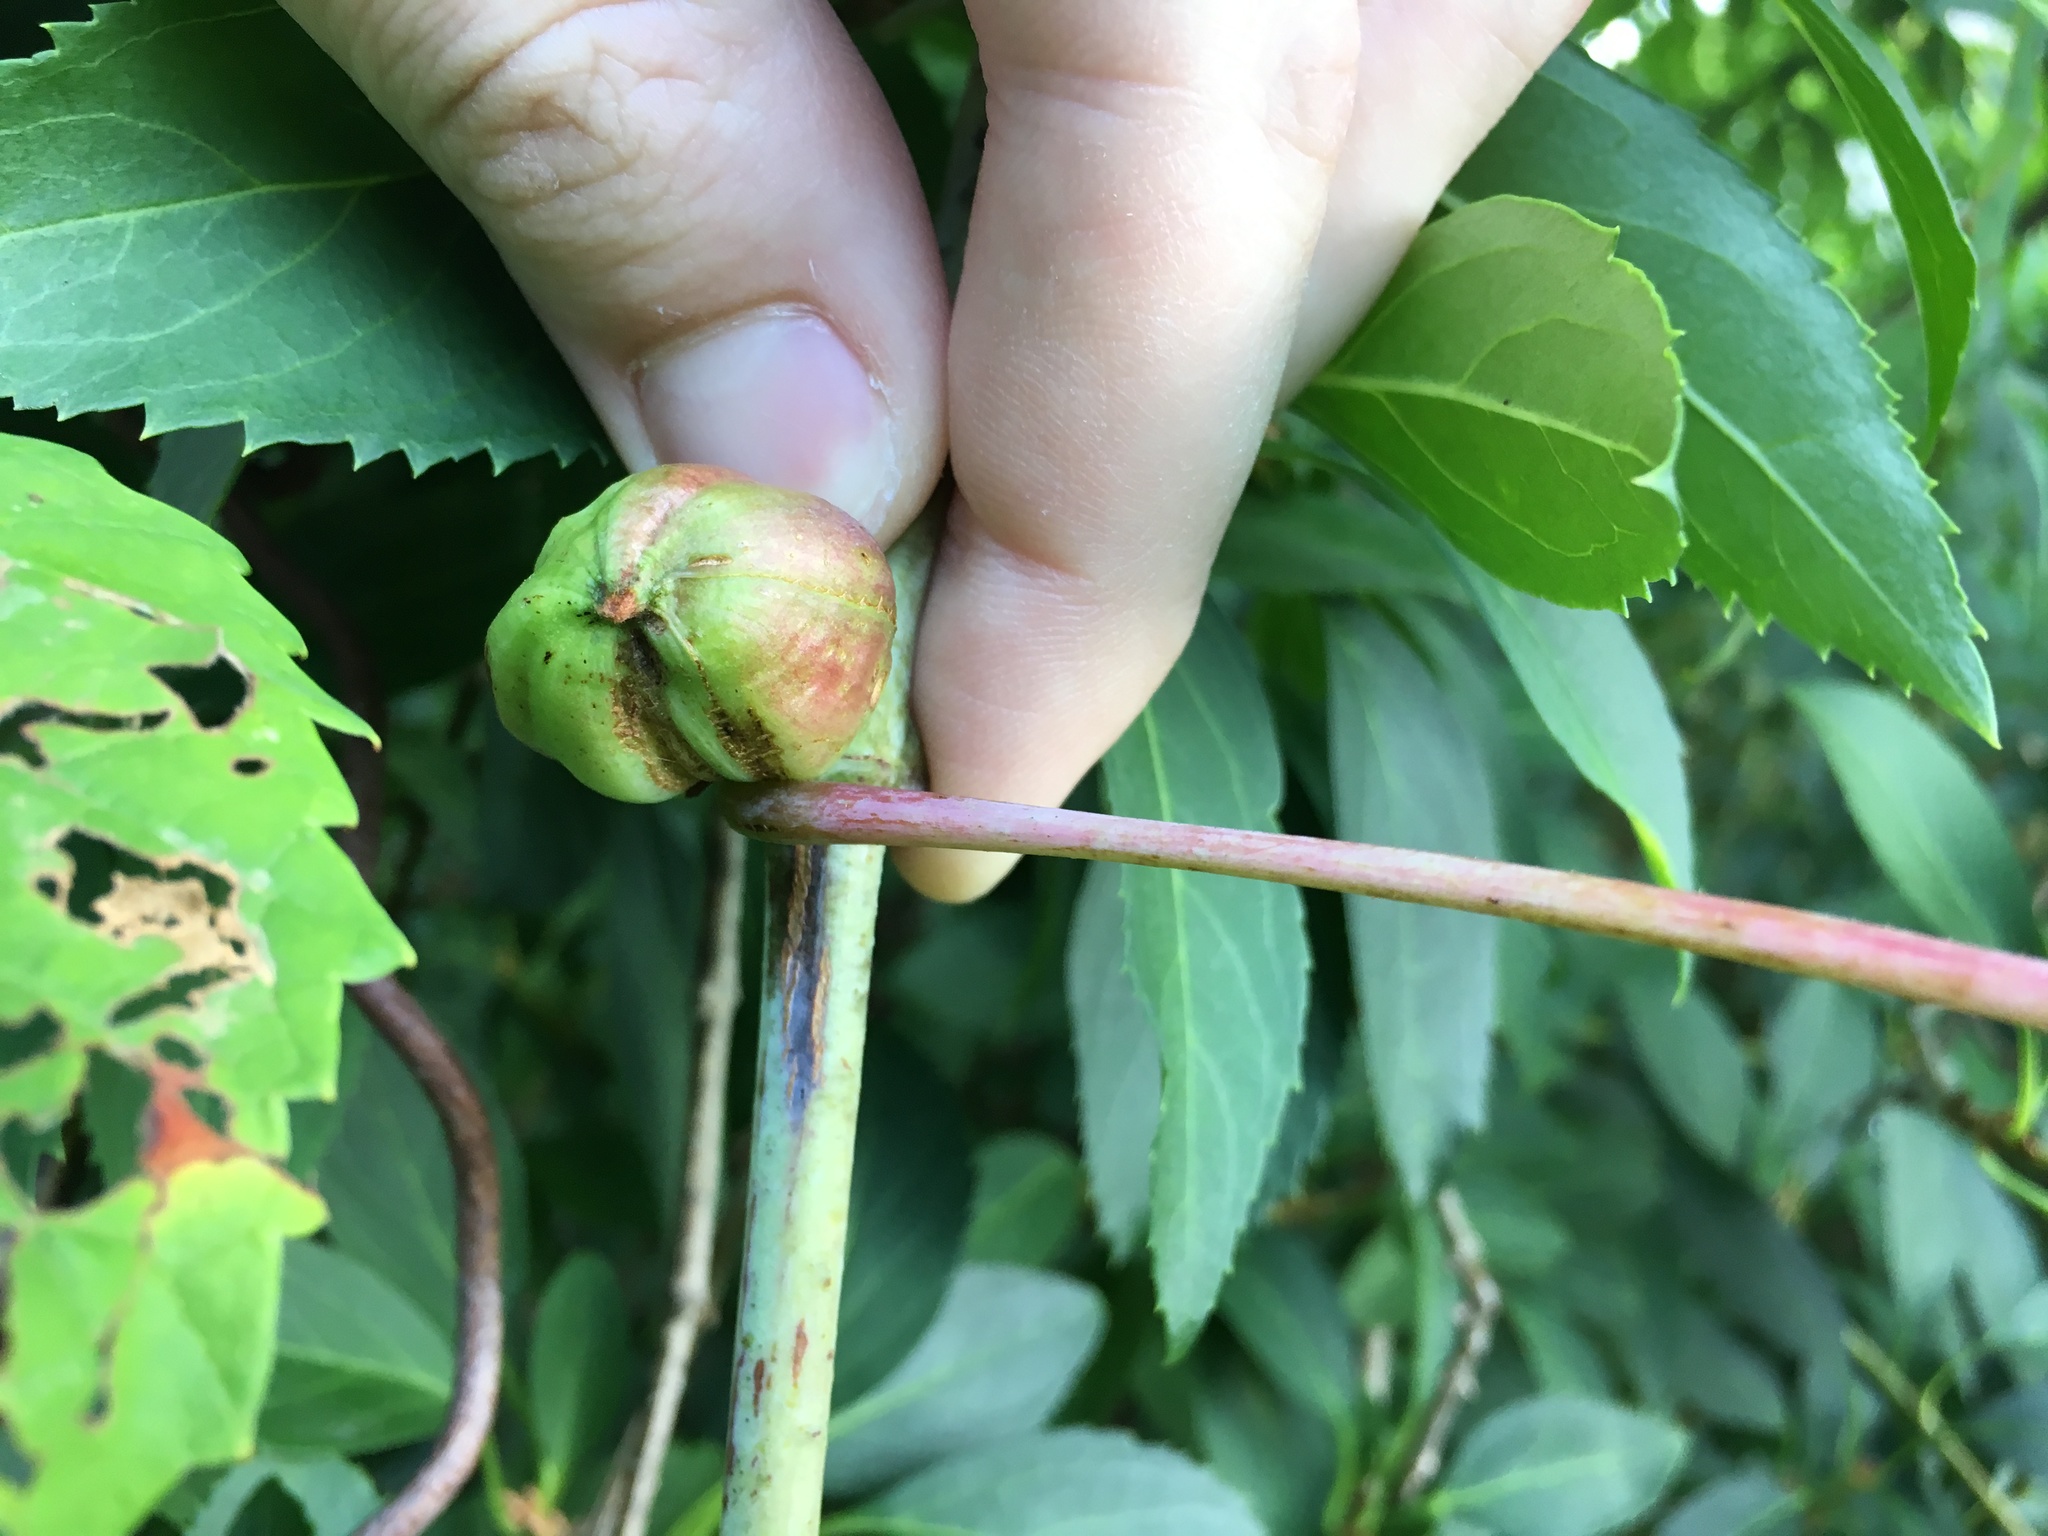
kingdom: Animalia
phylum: Arthropoda
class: Insecta
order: Diptera
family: Cecidomyiidae
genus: Ampelomyia
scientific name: Ampelomyia vitispomum
